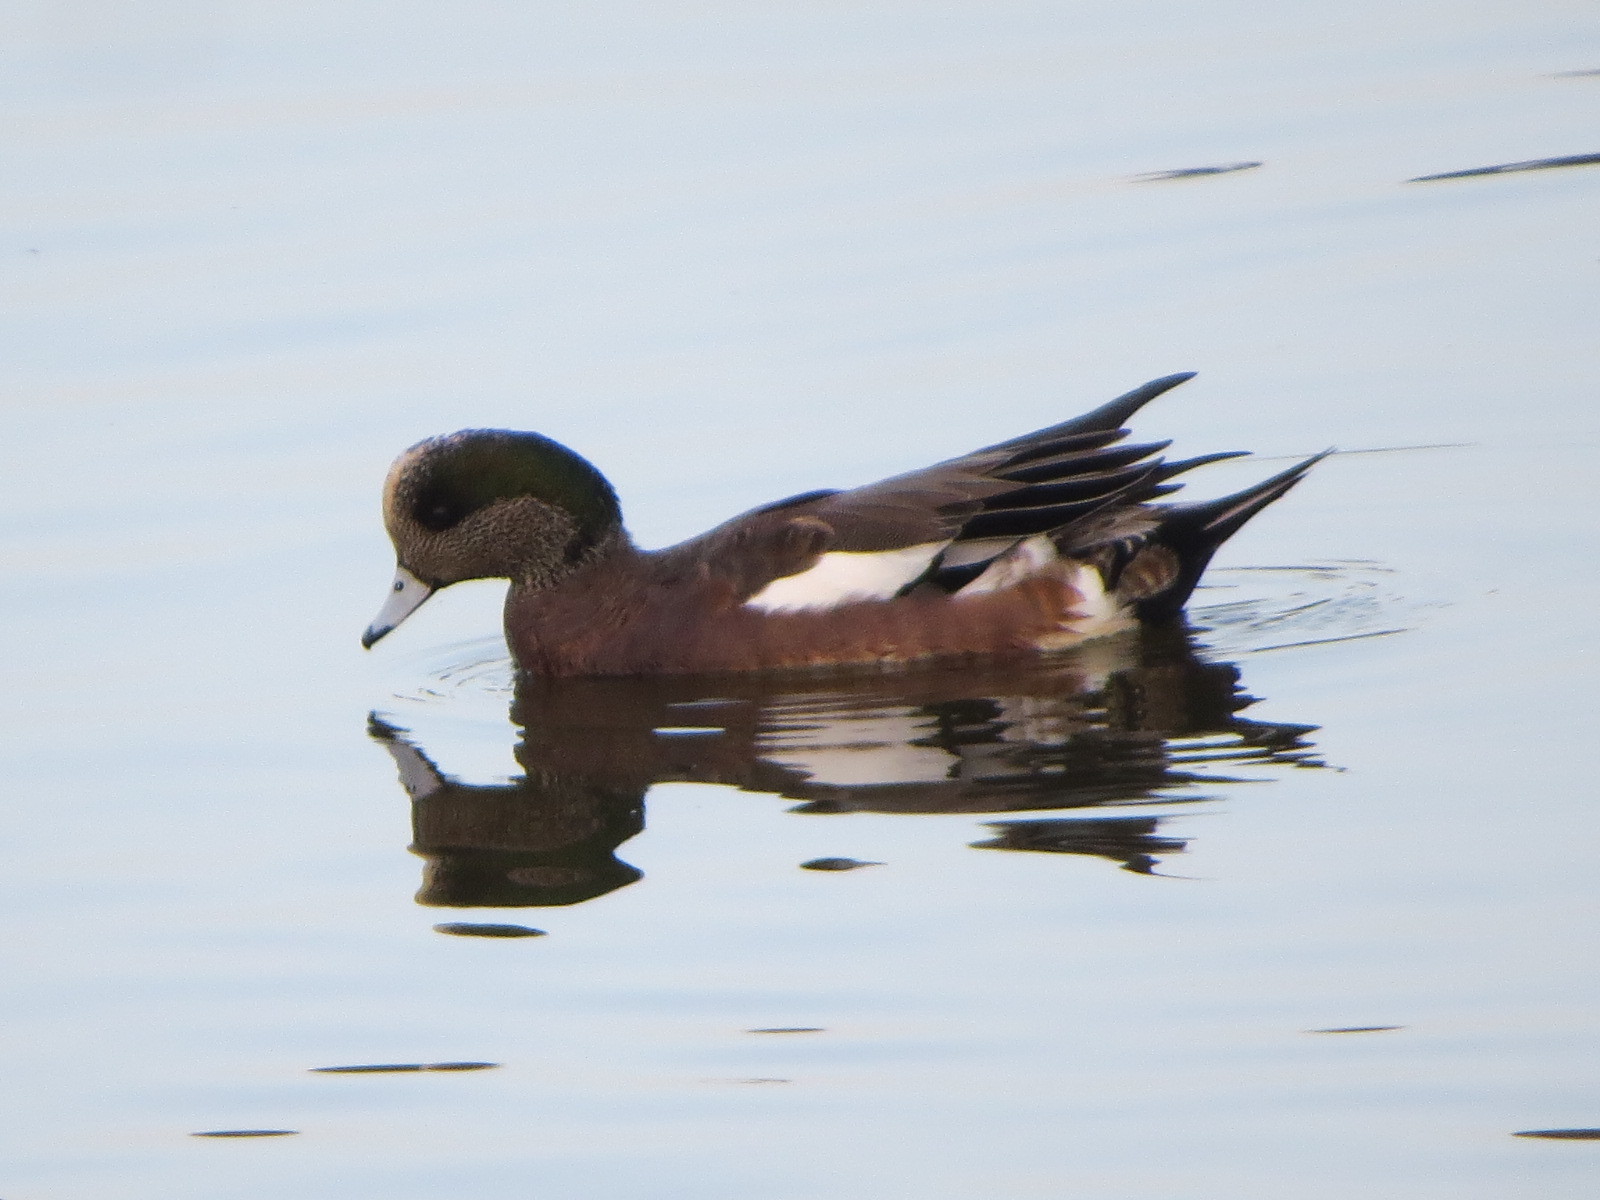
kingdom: Animalia
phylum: Chordata
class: Aves
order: Anseriformes
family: Anatidae
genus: Mareca
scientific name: Mareca americana
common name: American wigeon
